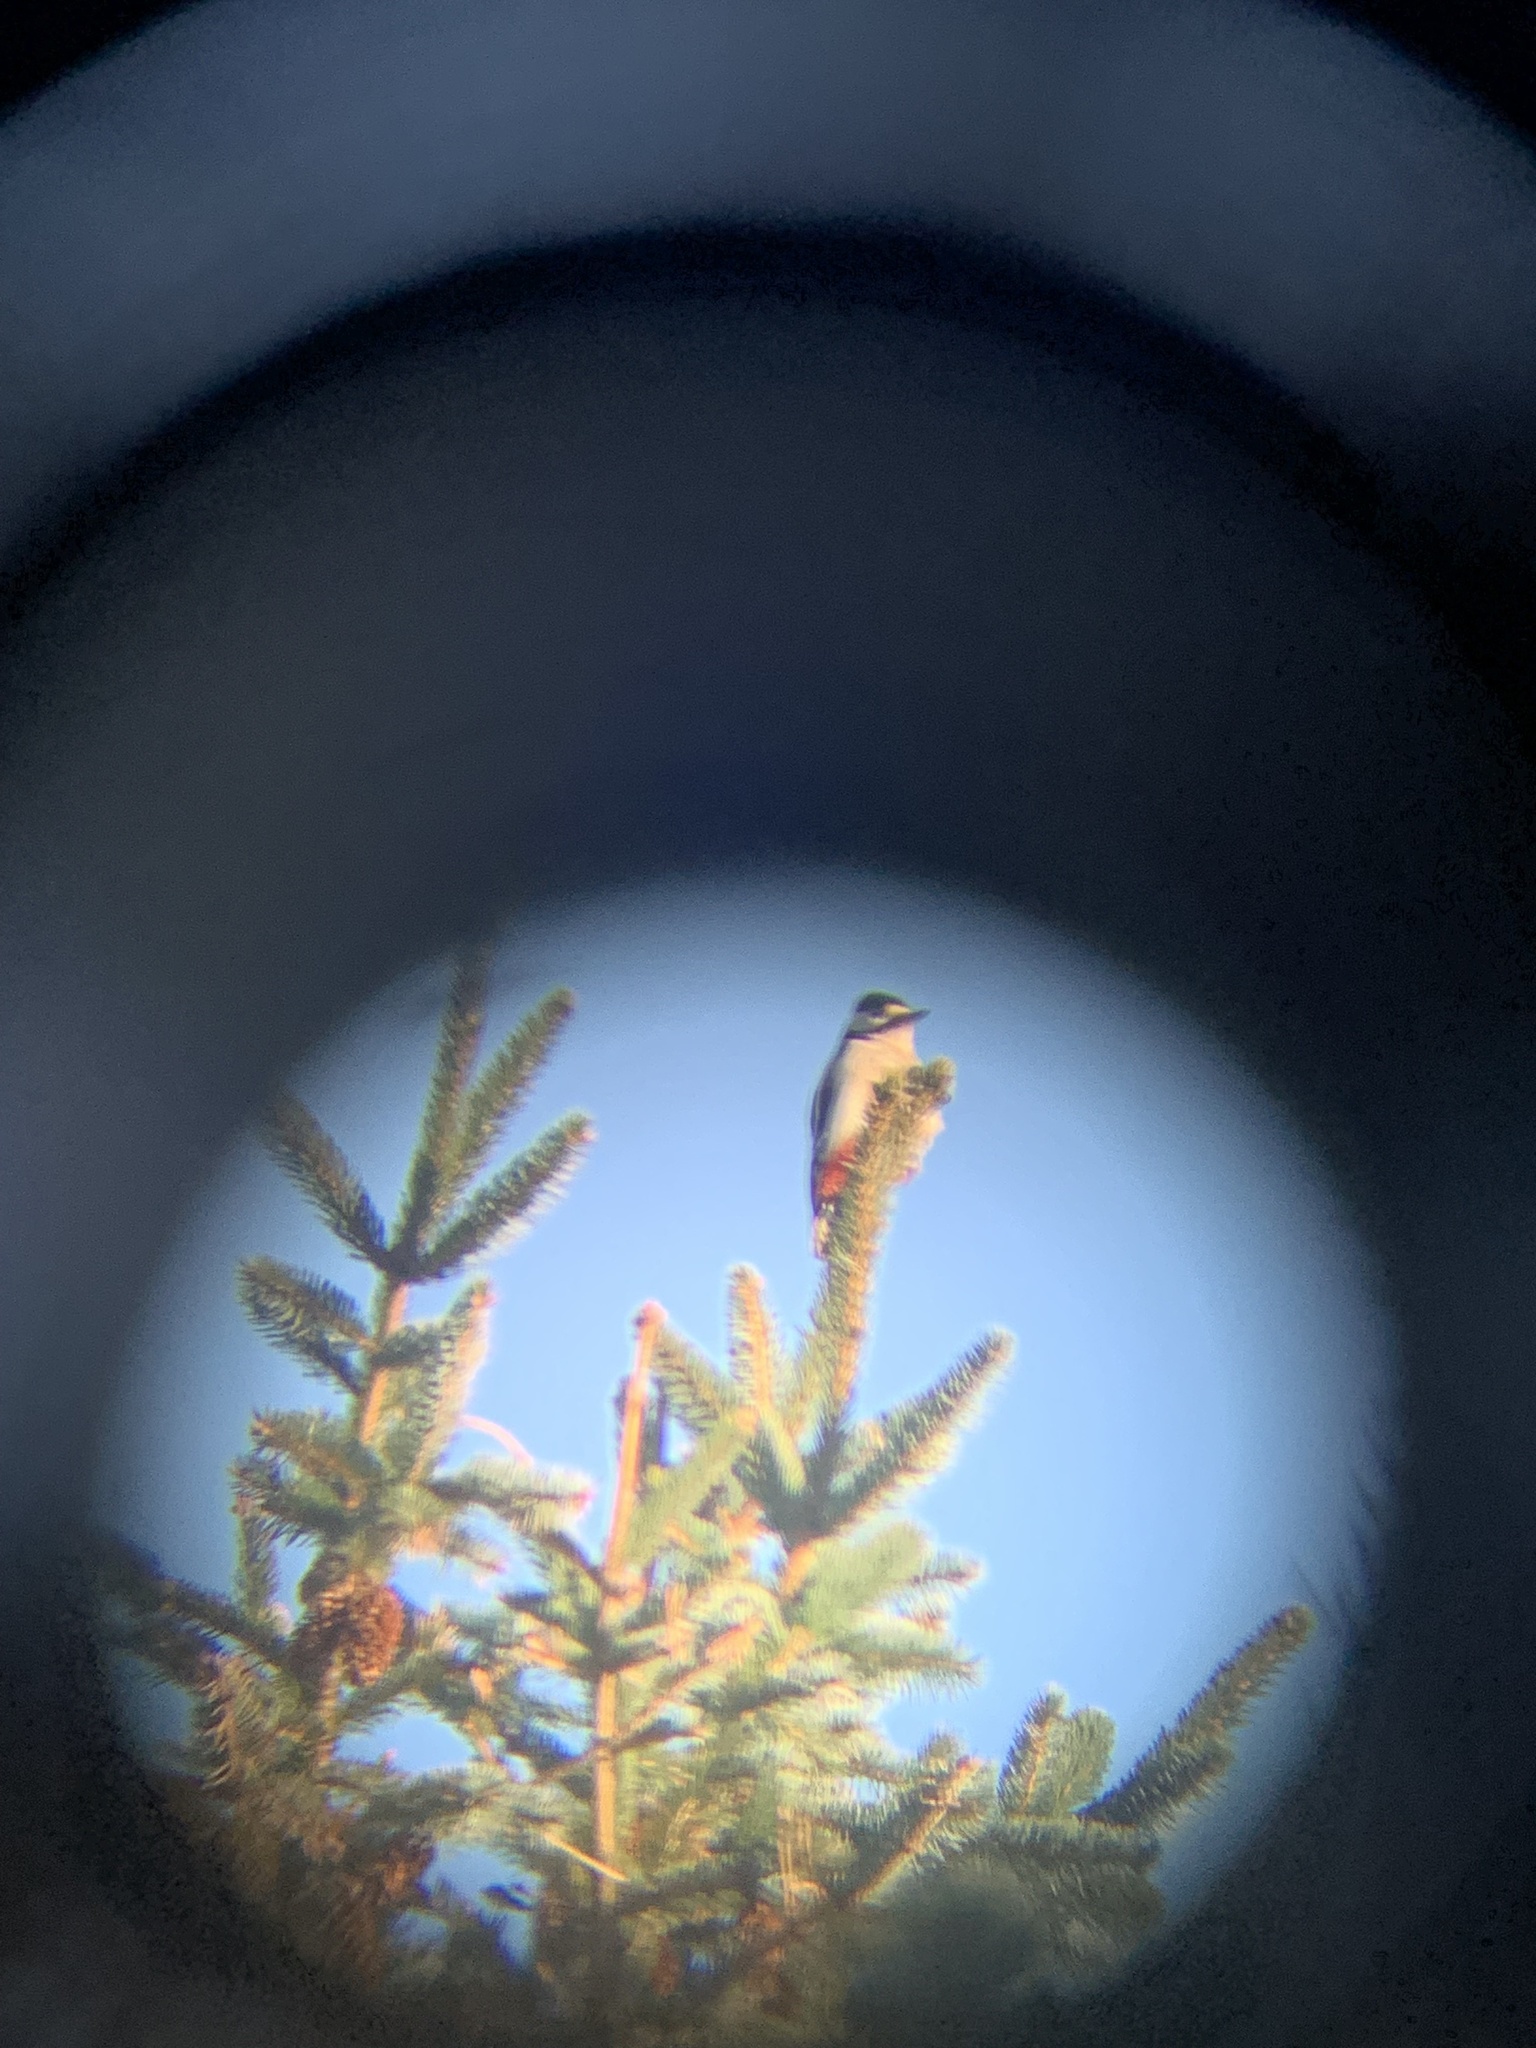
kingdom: Animalia
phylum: Chordata
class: Aves
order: Piciformes
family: Picidae
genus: Dendrocopos
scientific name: Dendrocopos major
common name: Great spotted woodpecker
